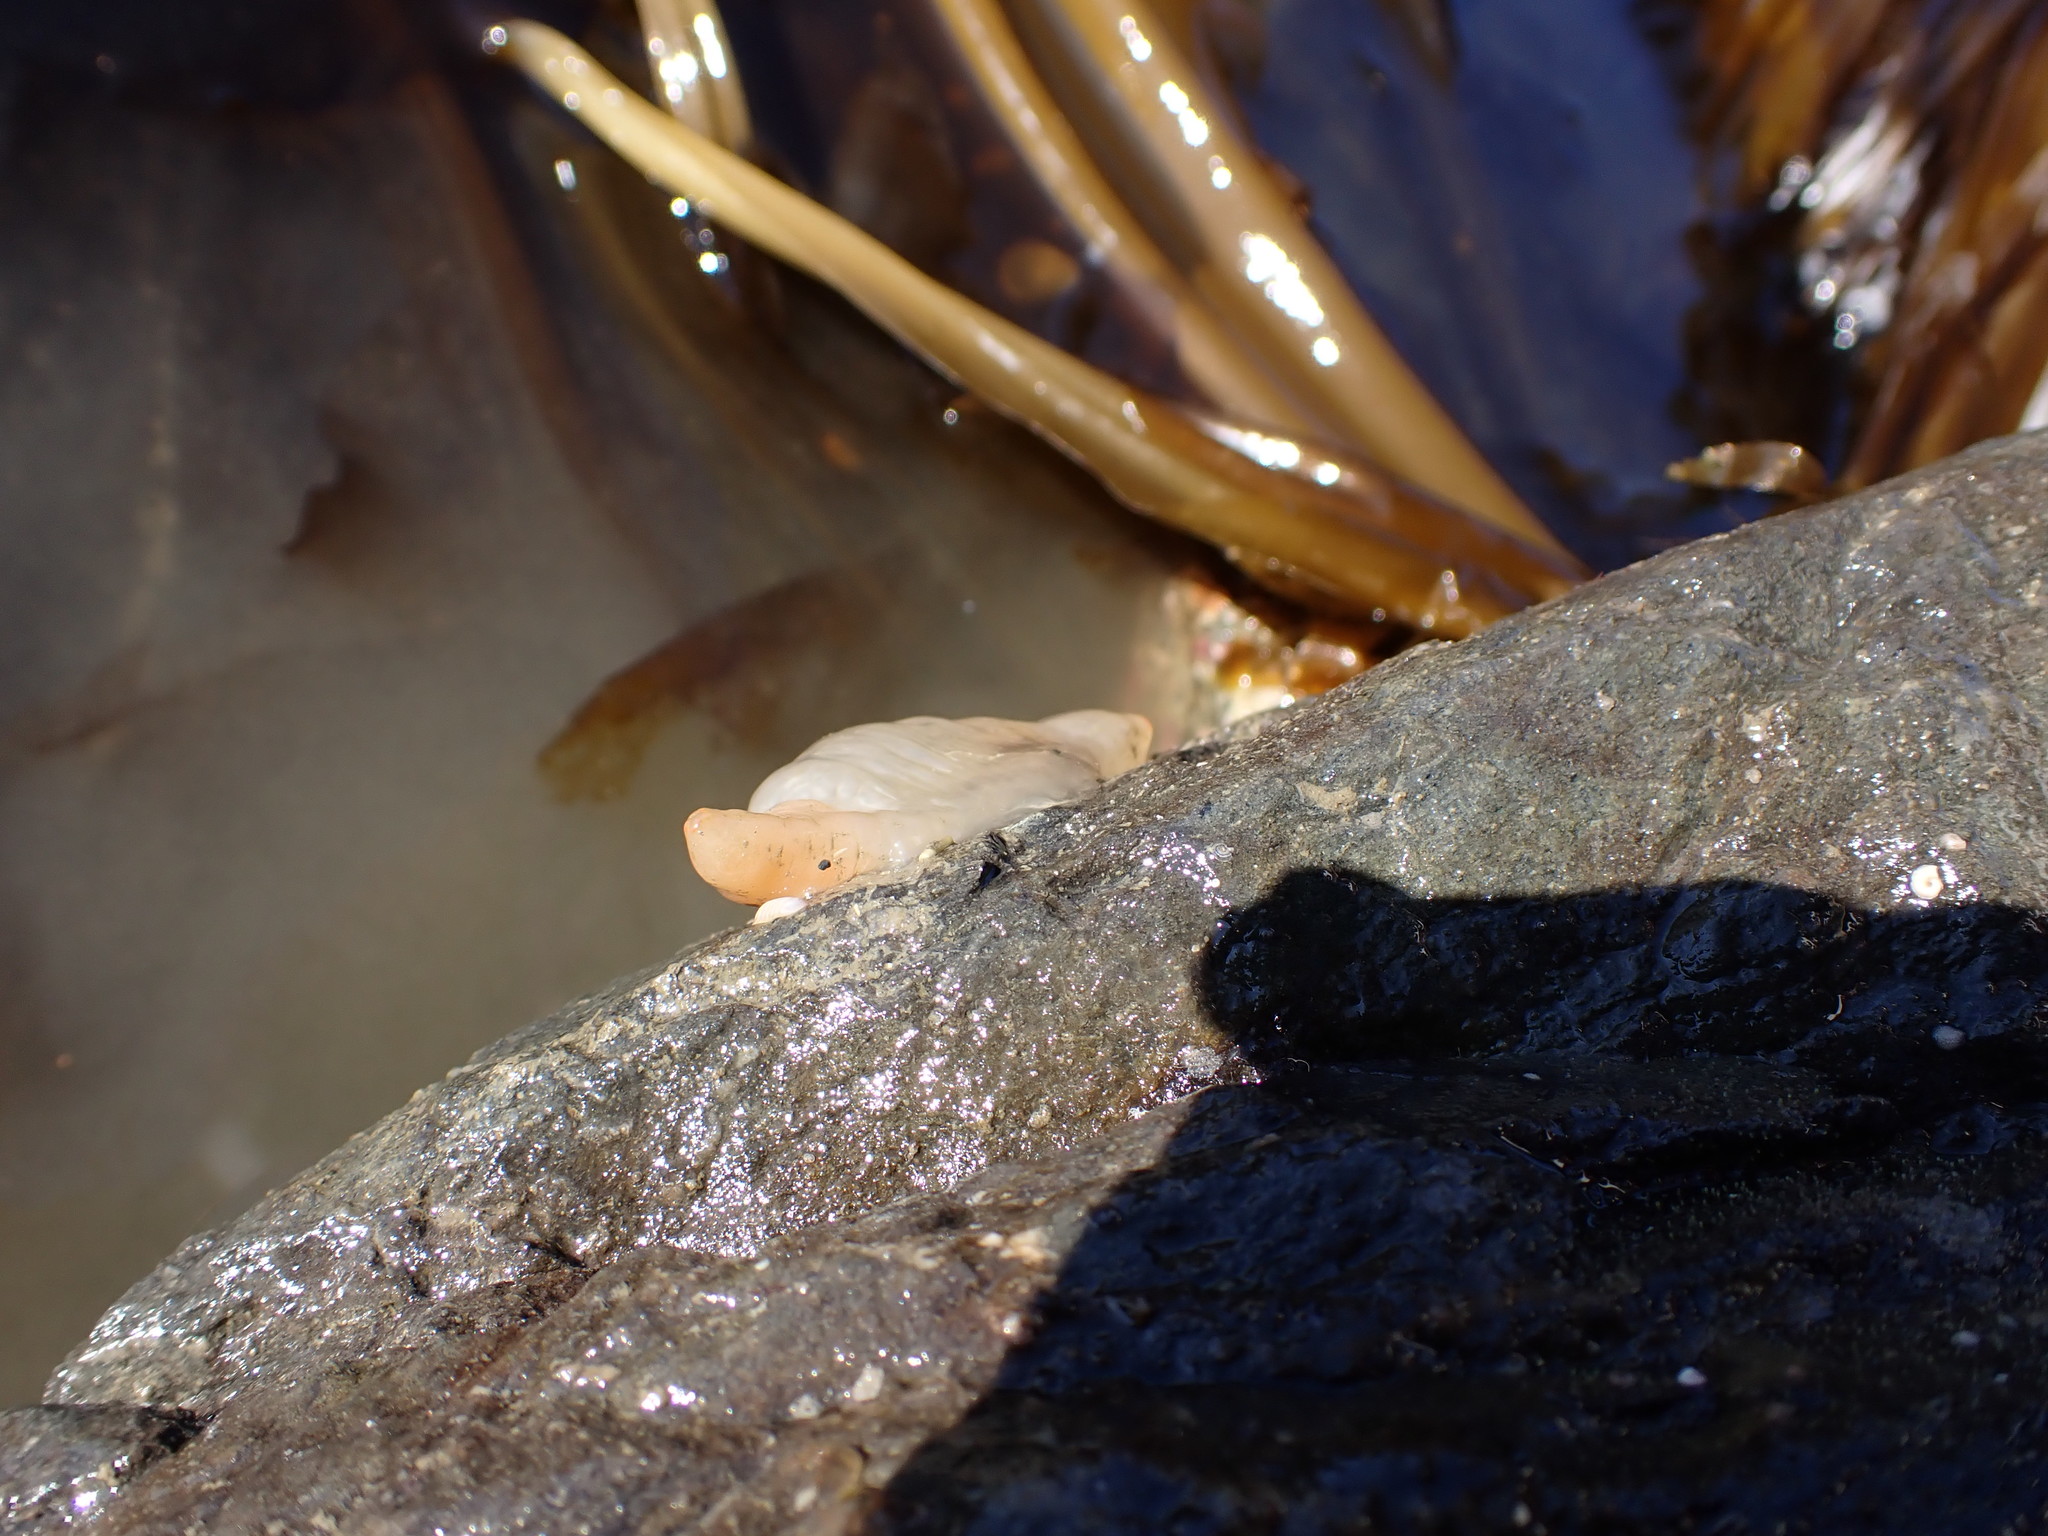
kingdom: Animalia
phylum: Chordata
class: Ascidiacea
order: Stolidobranchia
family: Pyuridae
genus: Pyura
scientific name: Pyura mirabilis
